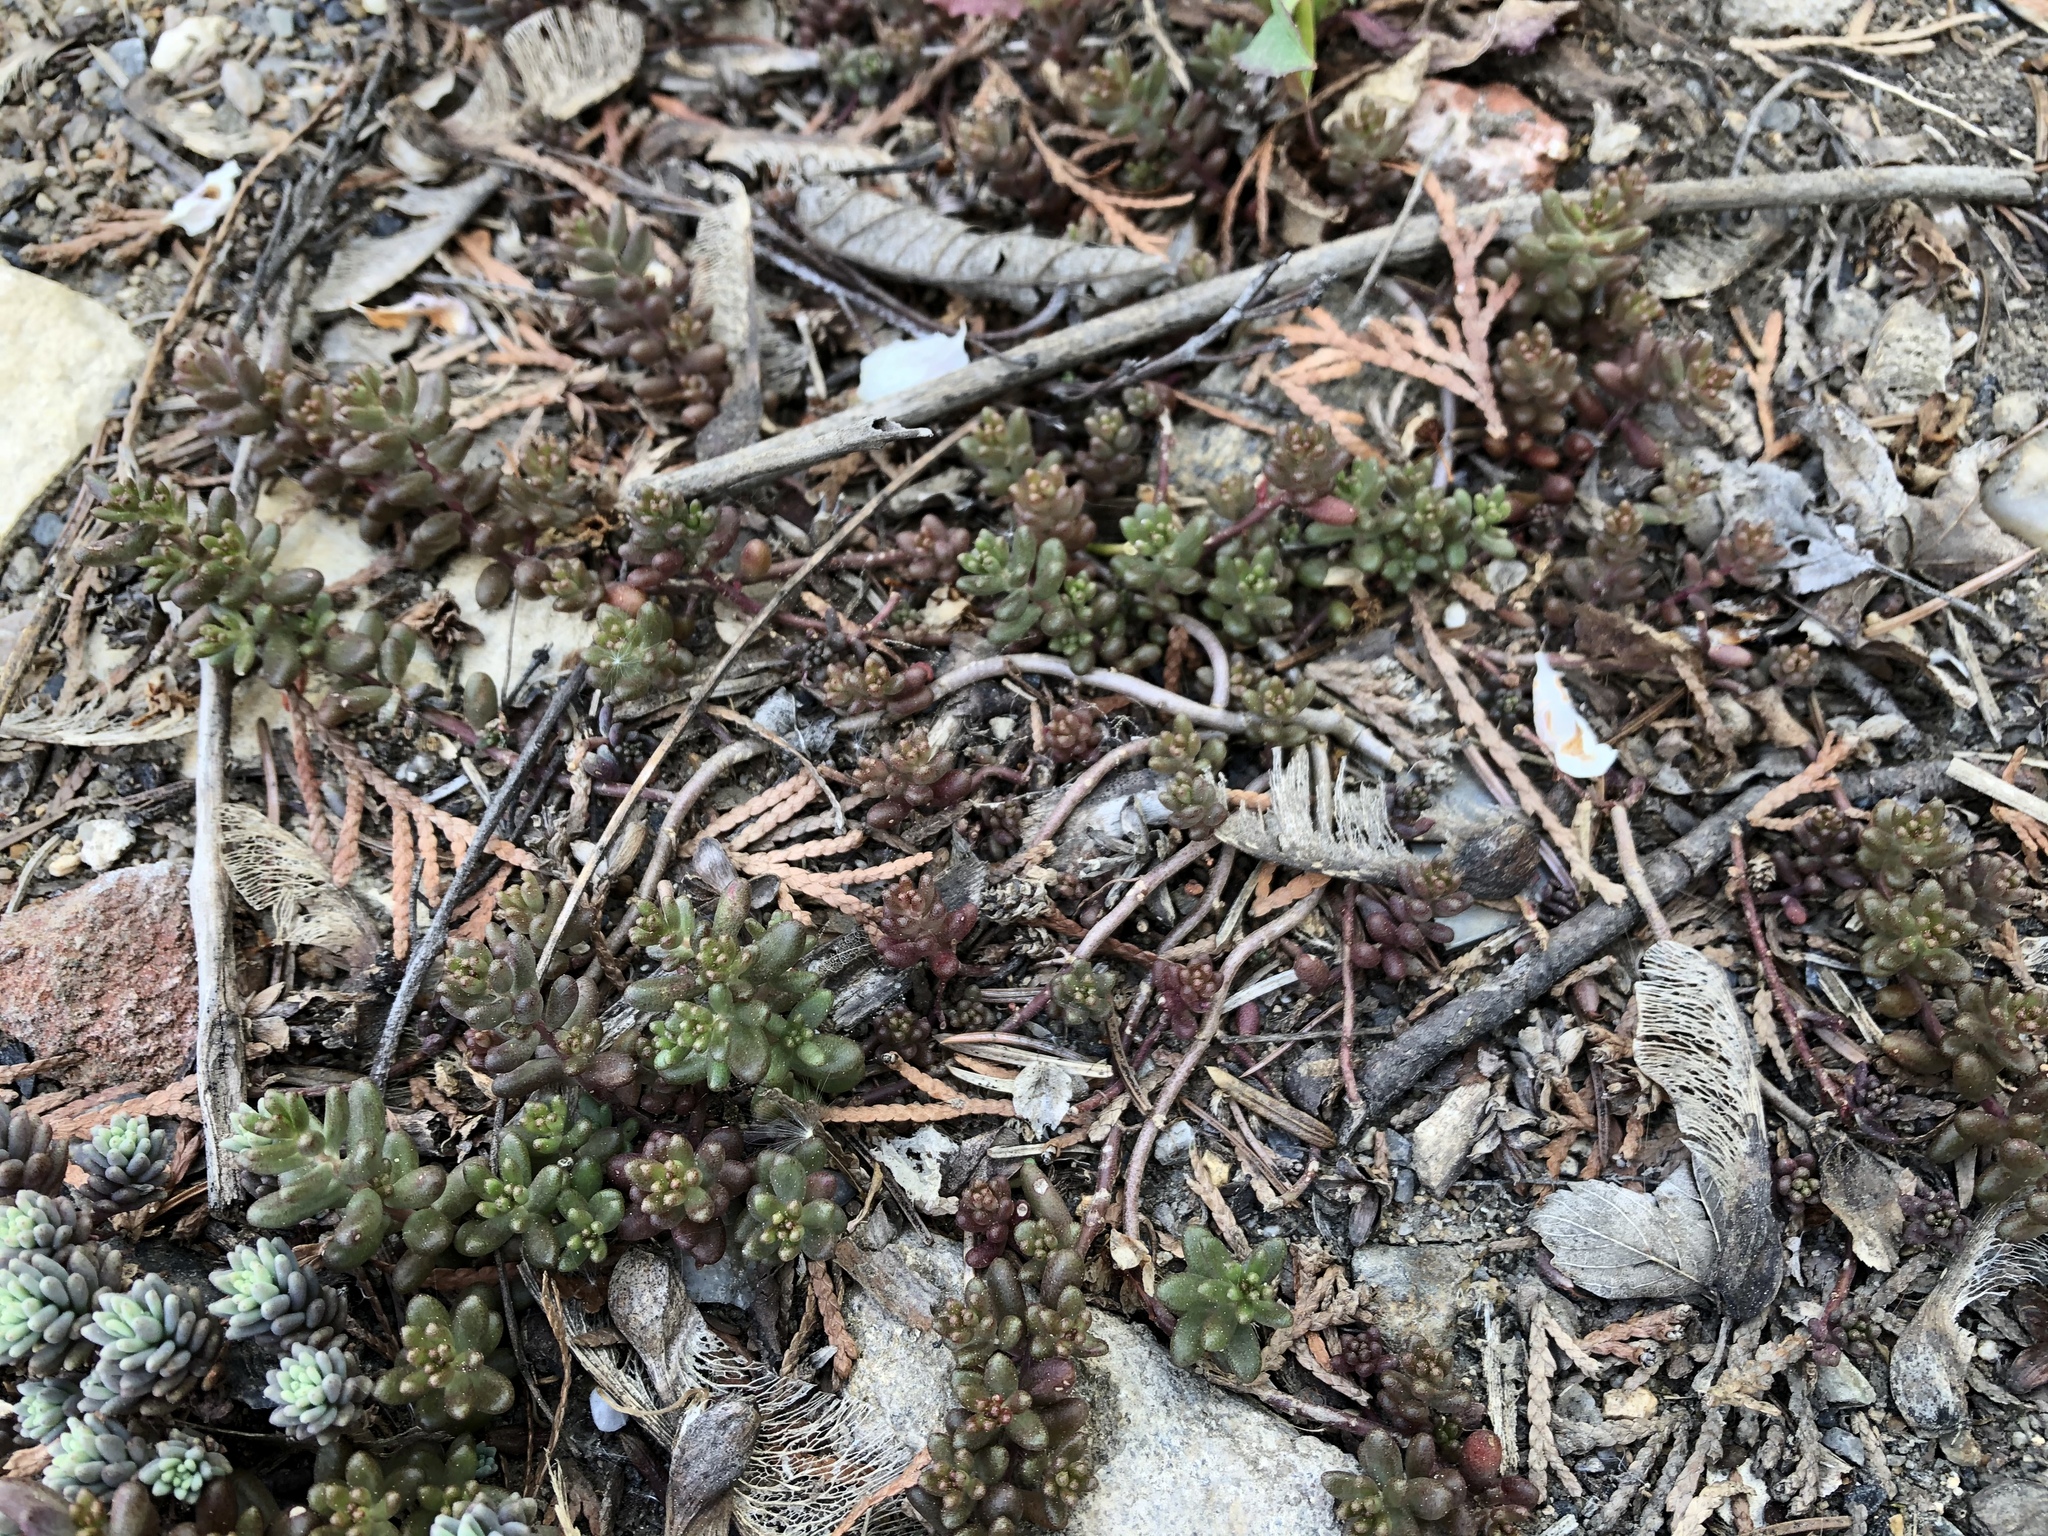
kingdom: Plantae
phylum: Tracheophyta
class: Magnoliopsida
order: Saxifragales
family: Crassulaceae
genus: Sedum
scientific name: Sedum album
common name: White stonecrop
